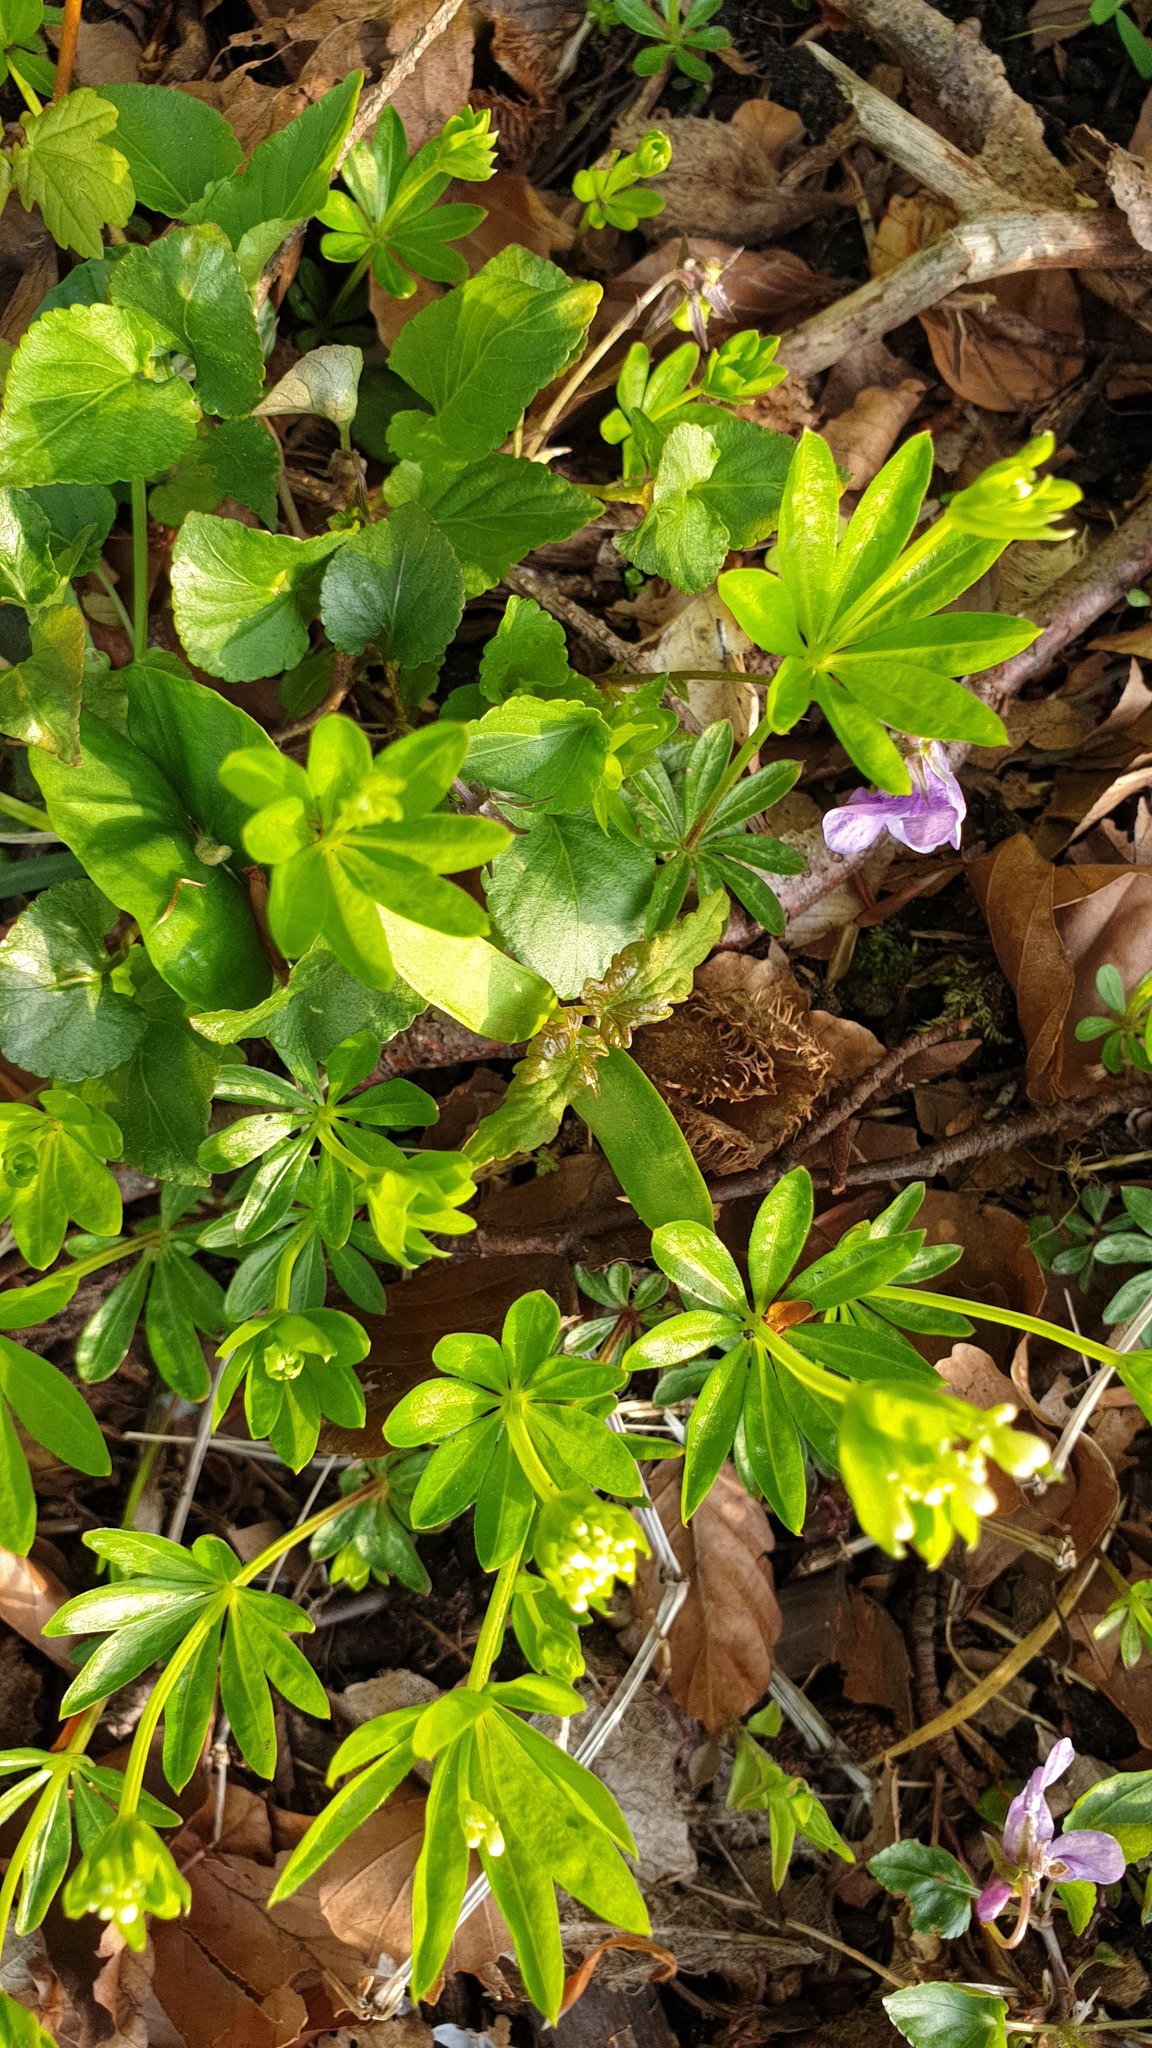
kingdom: Plantae
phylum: Tracheophyta
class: Magnoliopsida
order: Gentianales
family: Rubiaceae
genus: Galium
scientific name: Galium odoratum
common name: Sweet woodruff
